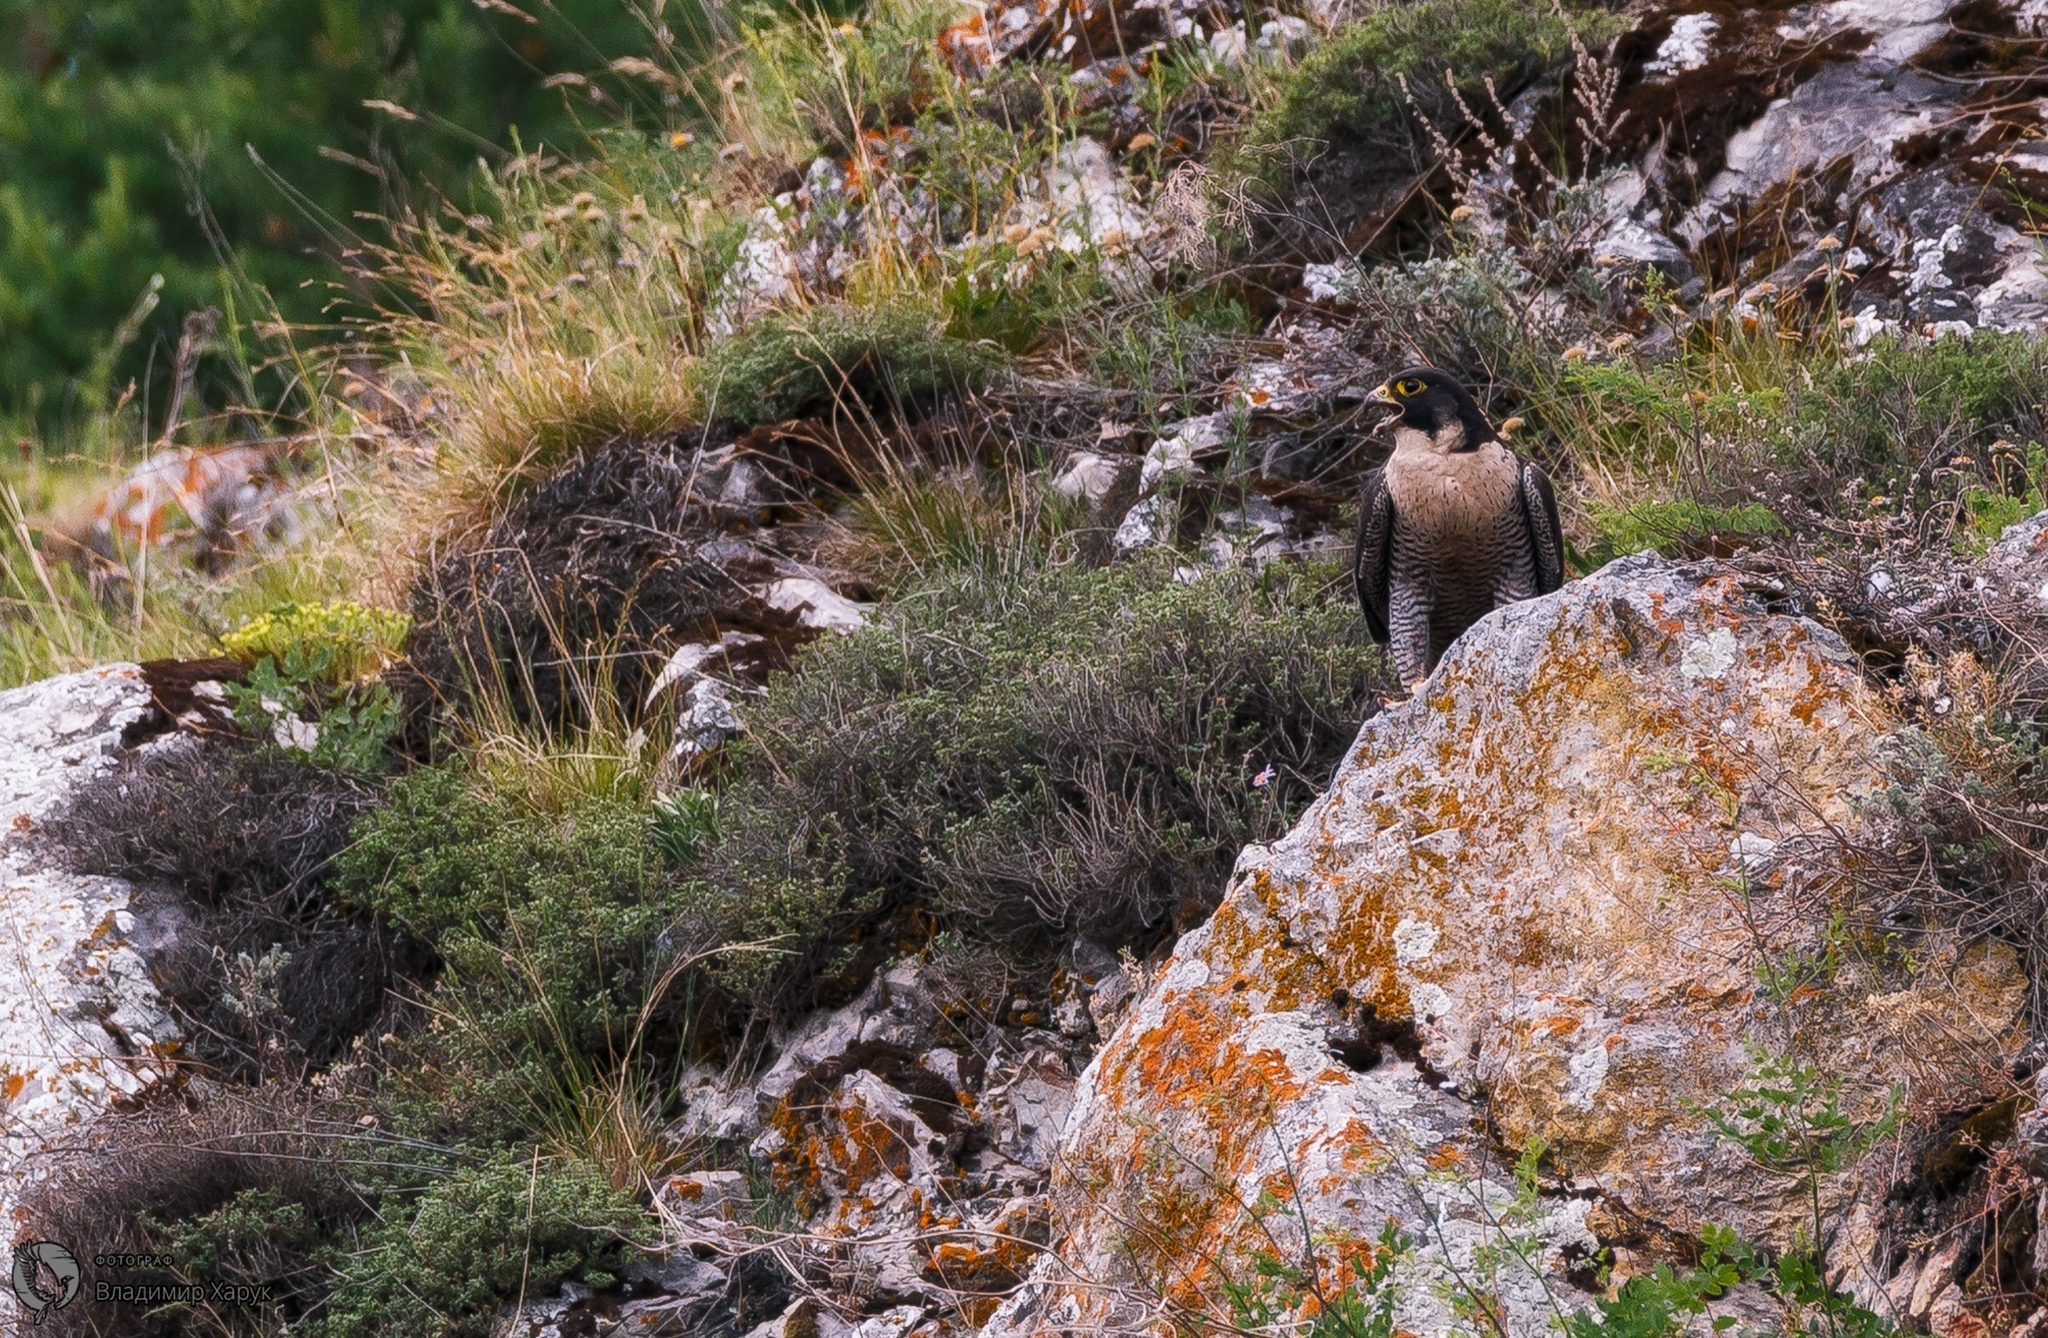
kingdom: Animalia
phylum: Chordata
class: Aves
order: Falconiformes
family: Falconidae
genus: Falco
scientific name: Falco peregrinus
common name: Peregrine falcon
